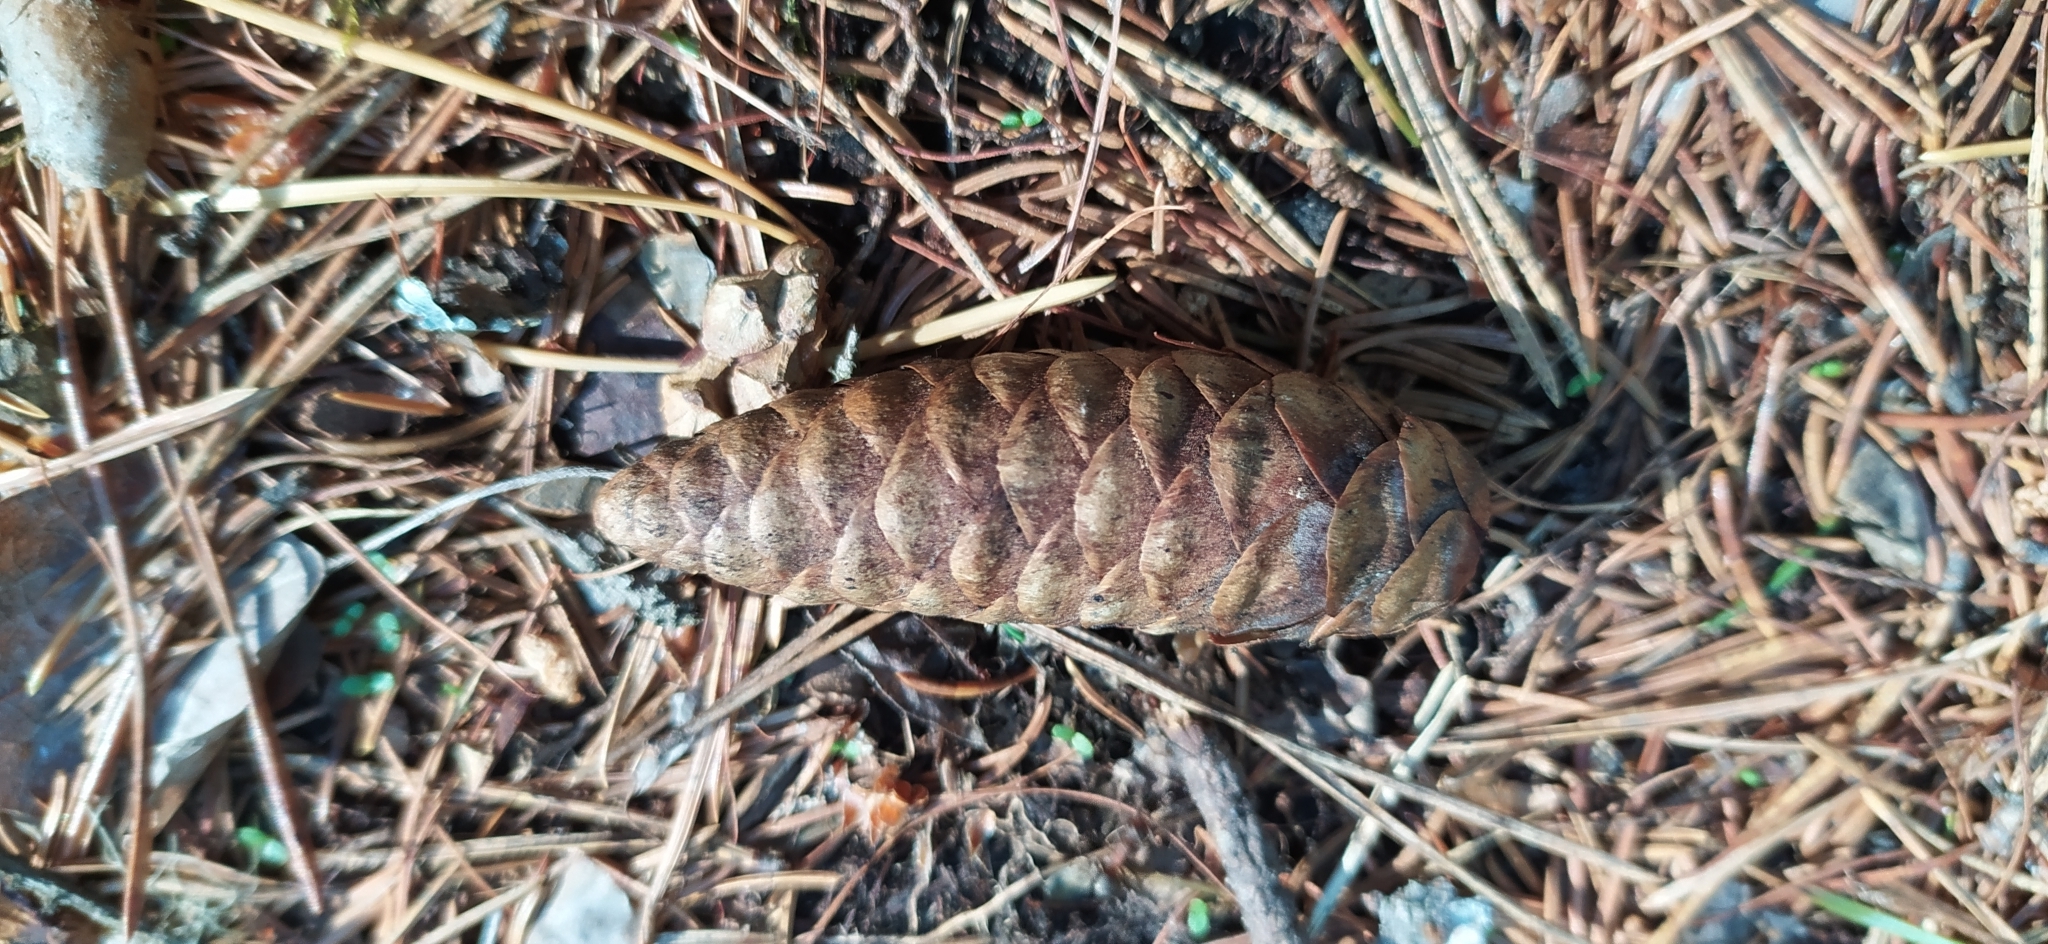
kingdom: Plantae
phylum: Tracheophyta
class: Pinopsida
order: Pinales
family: Pinaceae
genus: Picea
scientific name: Picea obovata
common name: Siberian spruce
